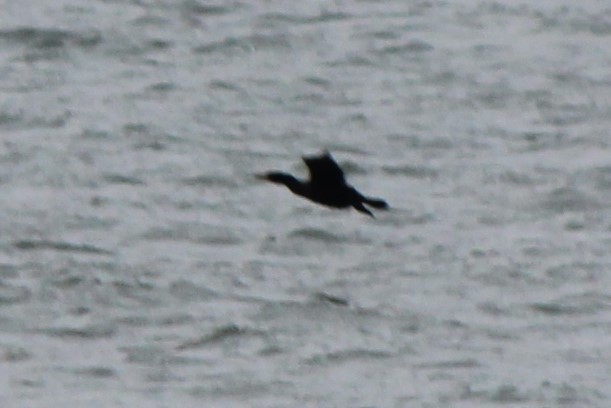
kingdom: Animalia
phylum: Chordata
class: Aves
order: Suliformes
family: Phalacrocoracidae
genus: Phalacrocorax
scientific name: Phalacrocorax auritus
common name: Double-crested cormorant
